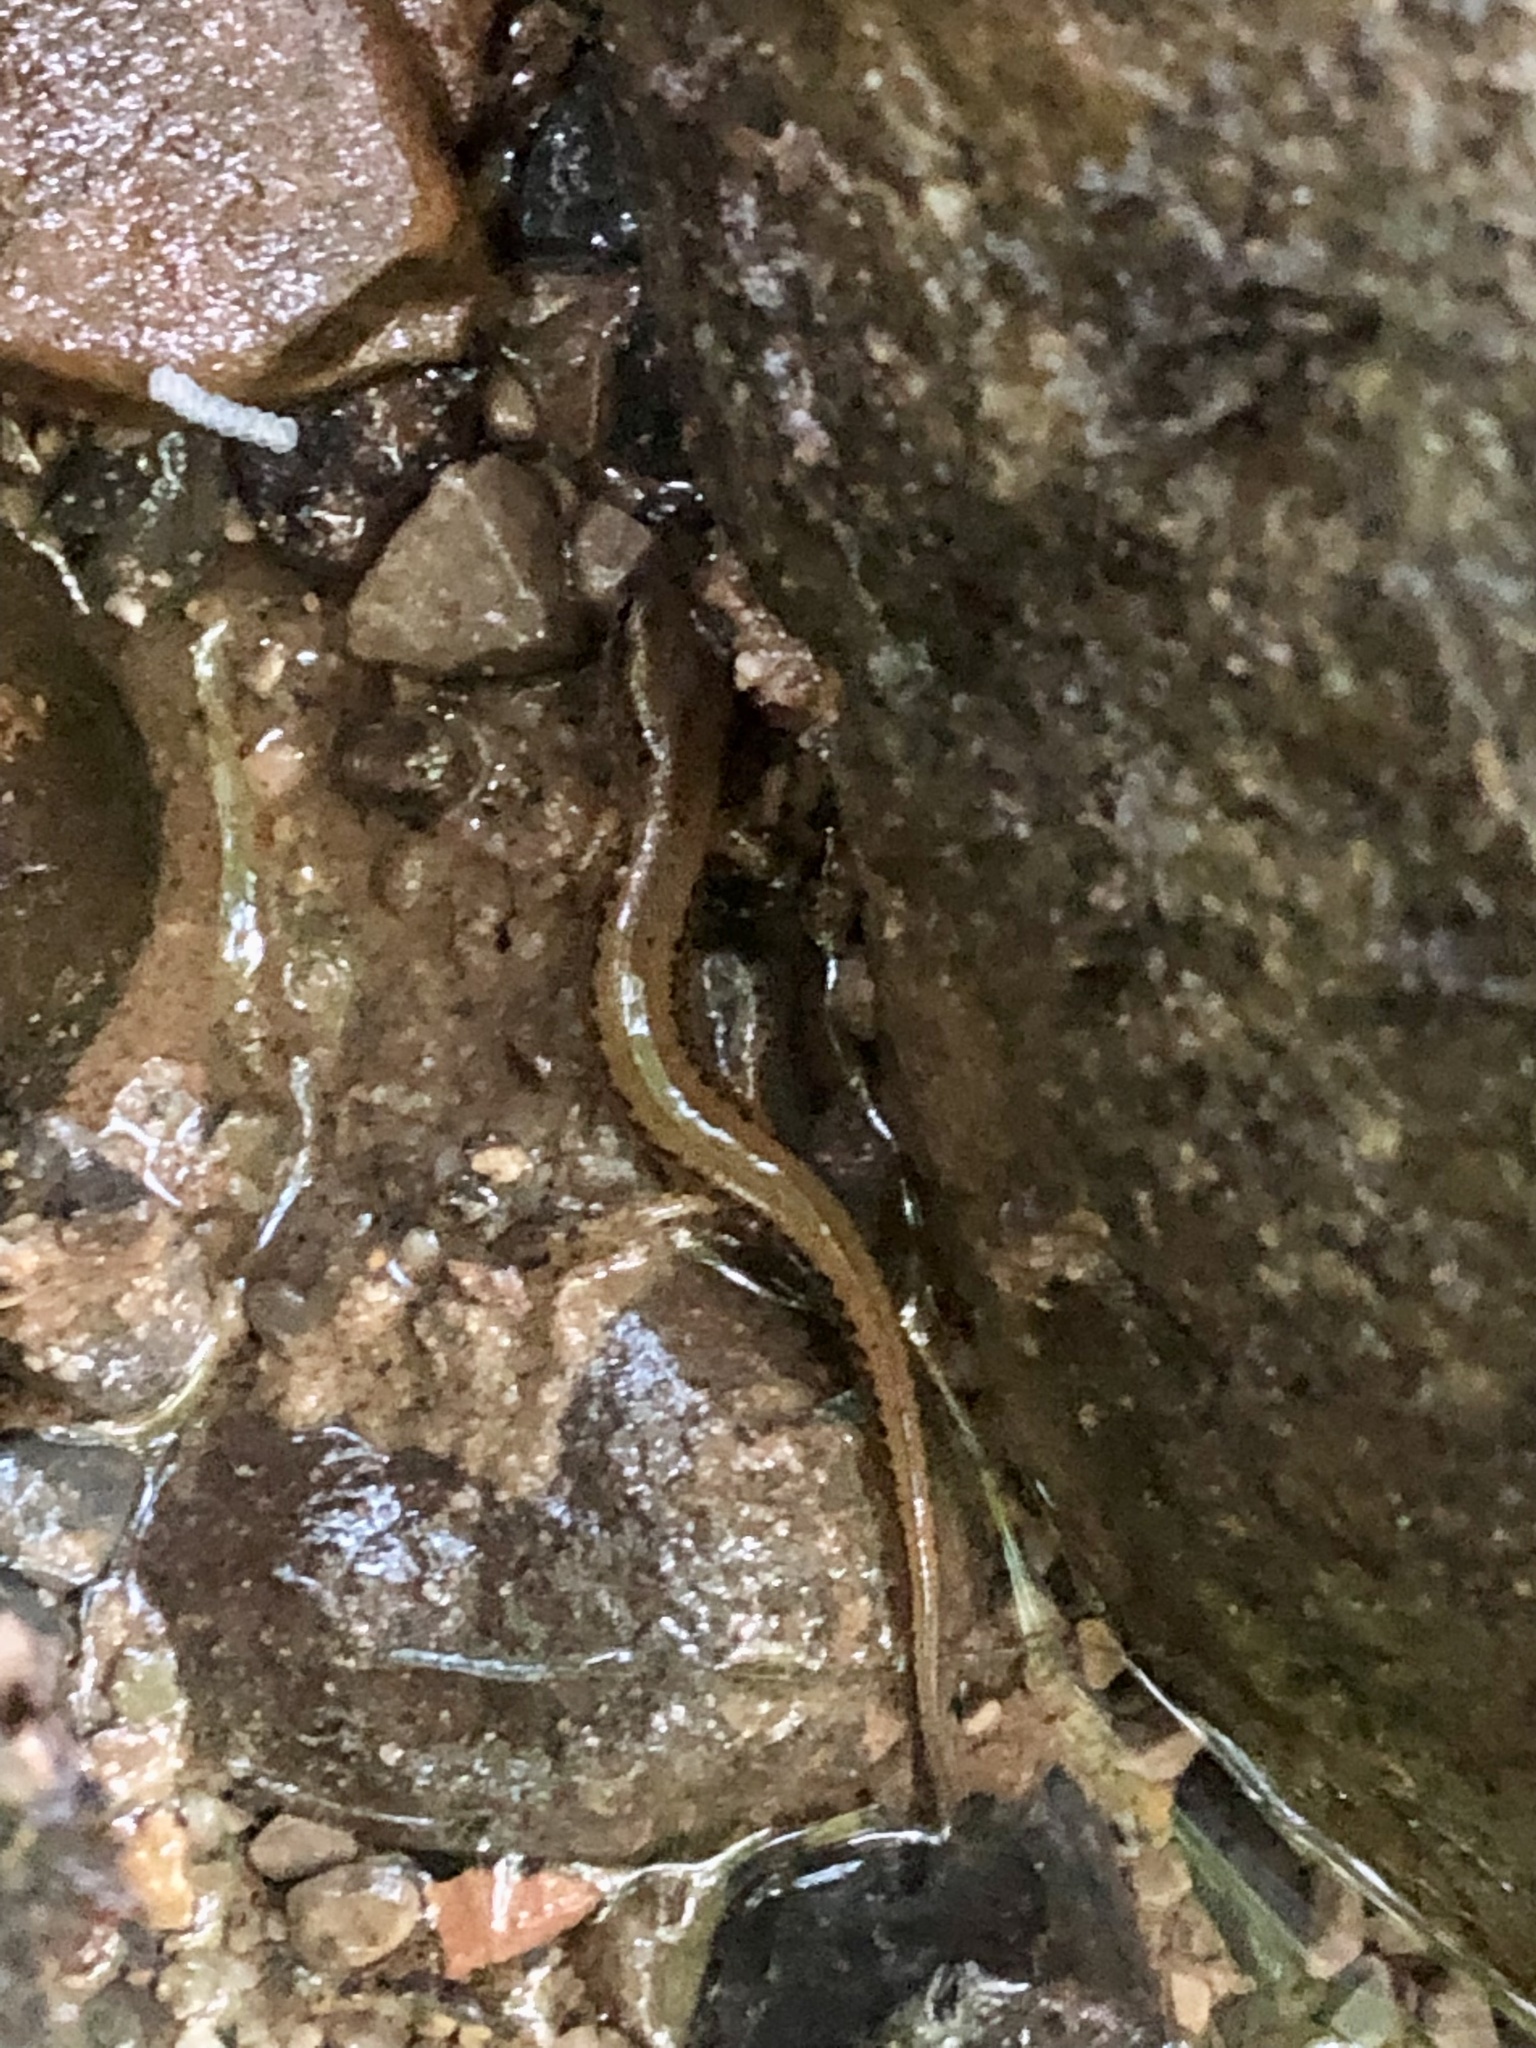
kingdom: Animalia
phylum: Chordata
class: Amphibia
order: Caudata
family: Plethodontidae
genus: Eurycea
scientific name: Eurycea longicauda
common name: Long-tailed salamander
